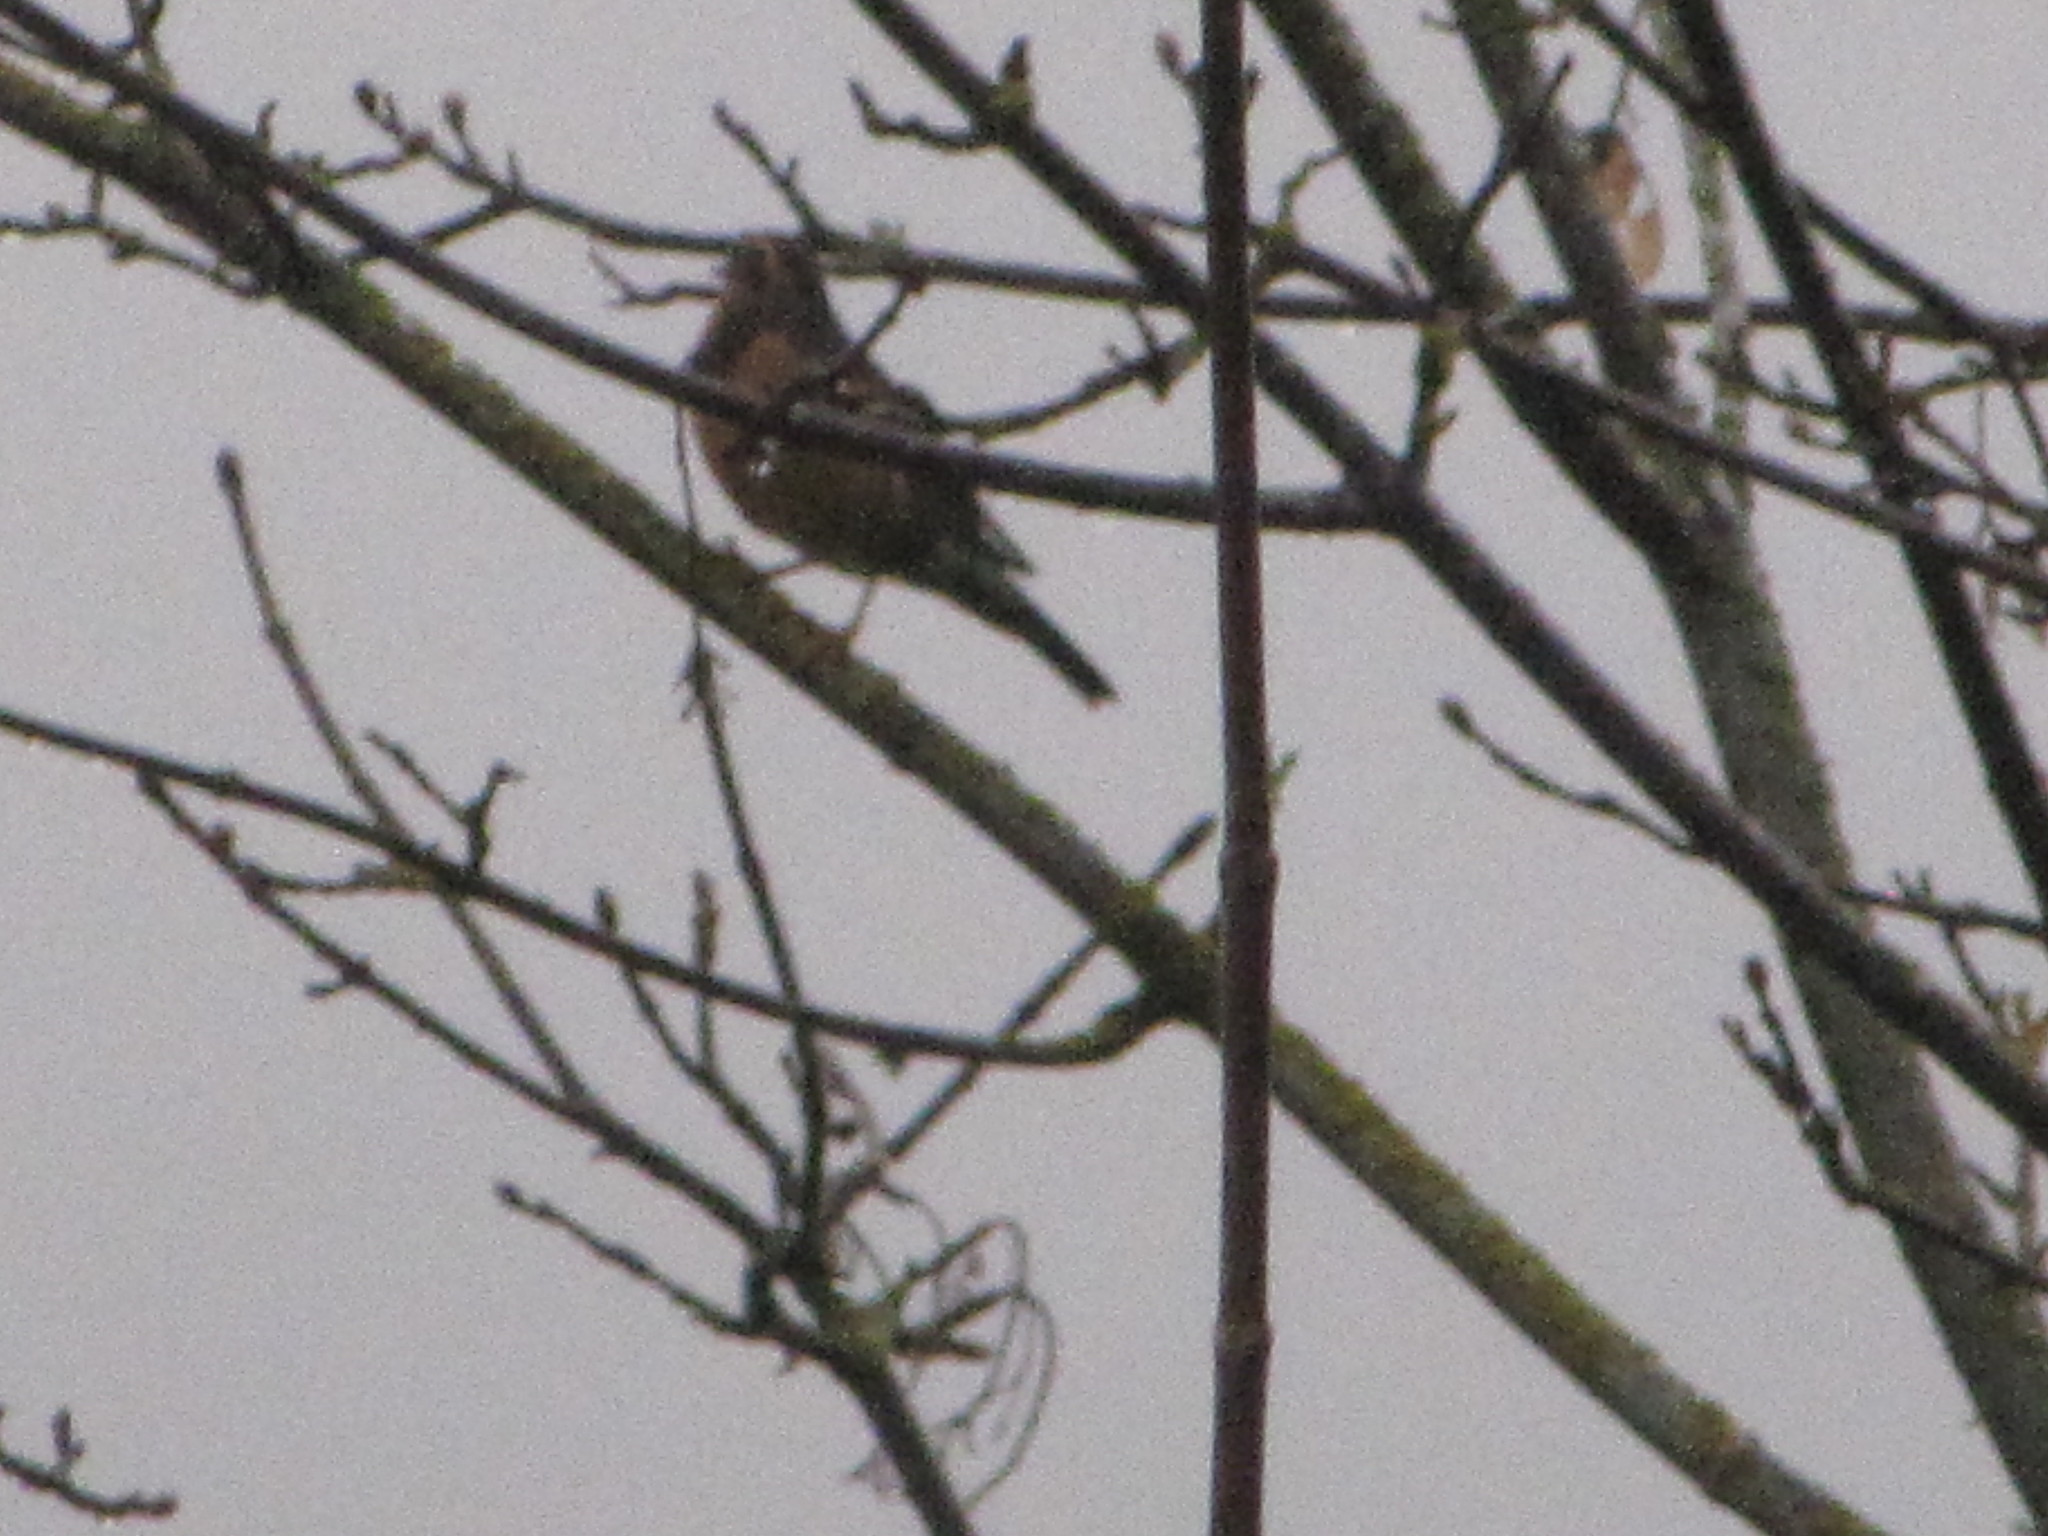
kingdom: Animalia
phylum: Chordata
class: Aves
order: Passeriformes
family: Turdidae
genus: Turdus
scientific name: Turdus migratorius
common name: American robin
